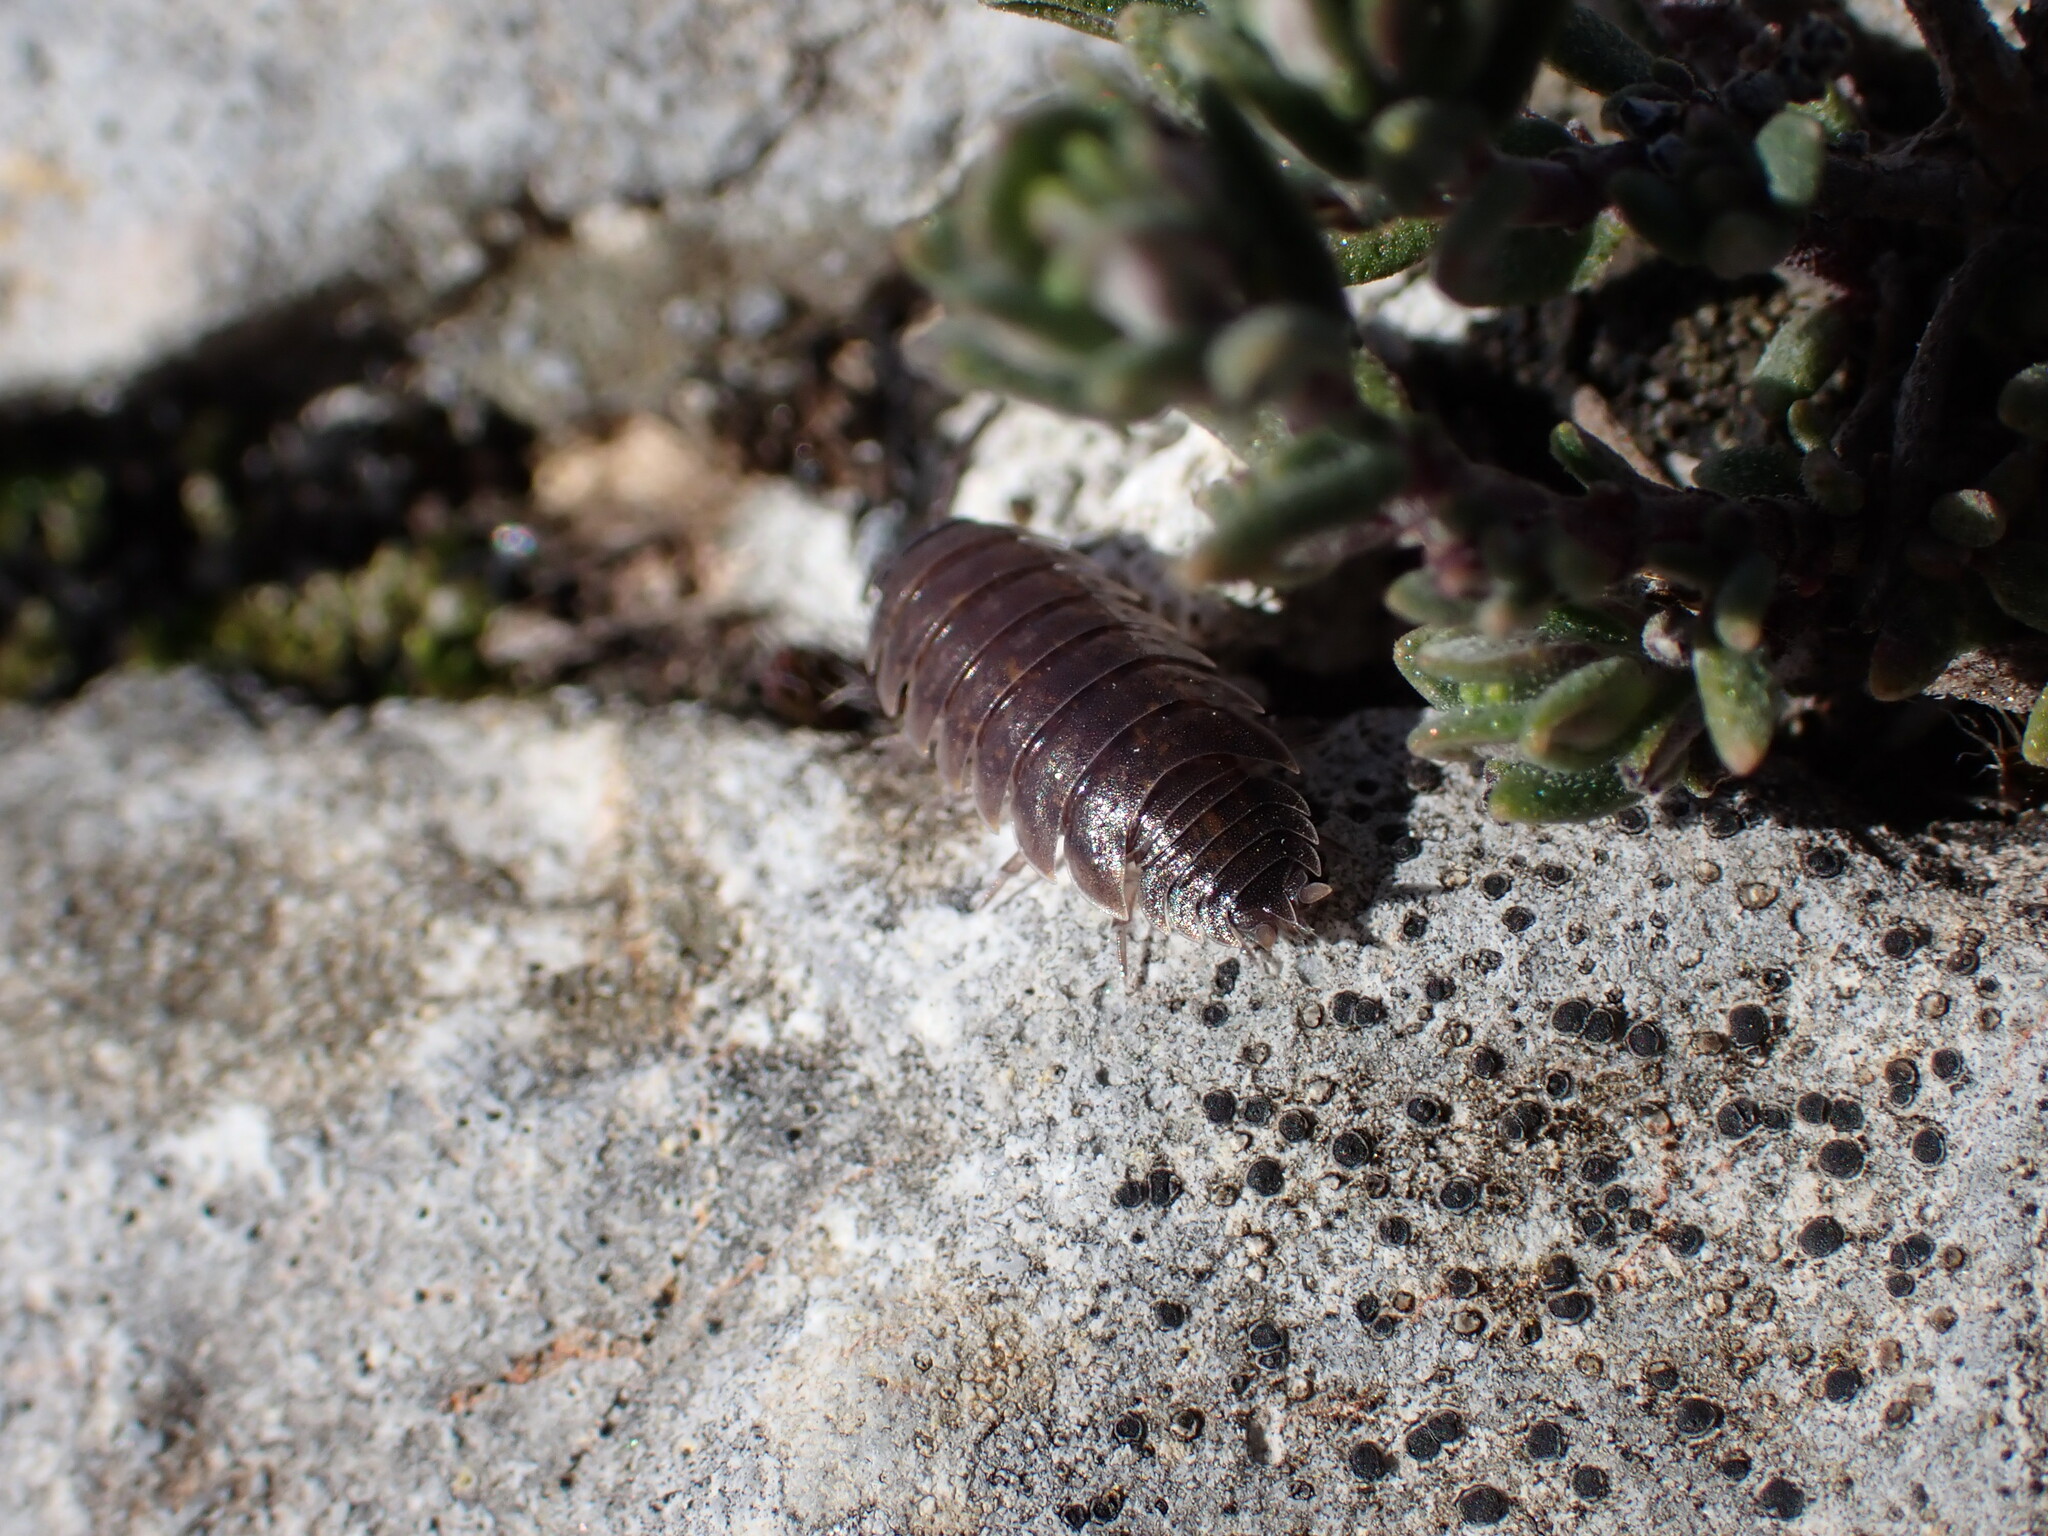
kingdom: Animalia
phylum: Arthropoda
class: Malacostraca
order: Isopoda
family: Porcellionidae
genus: Porcellio
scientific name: Porcellio orarum
